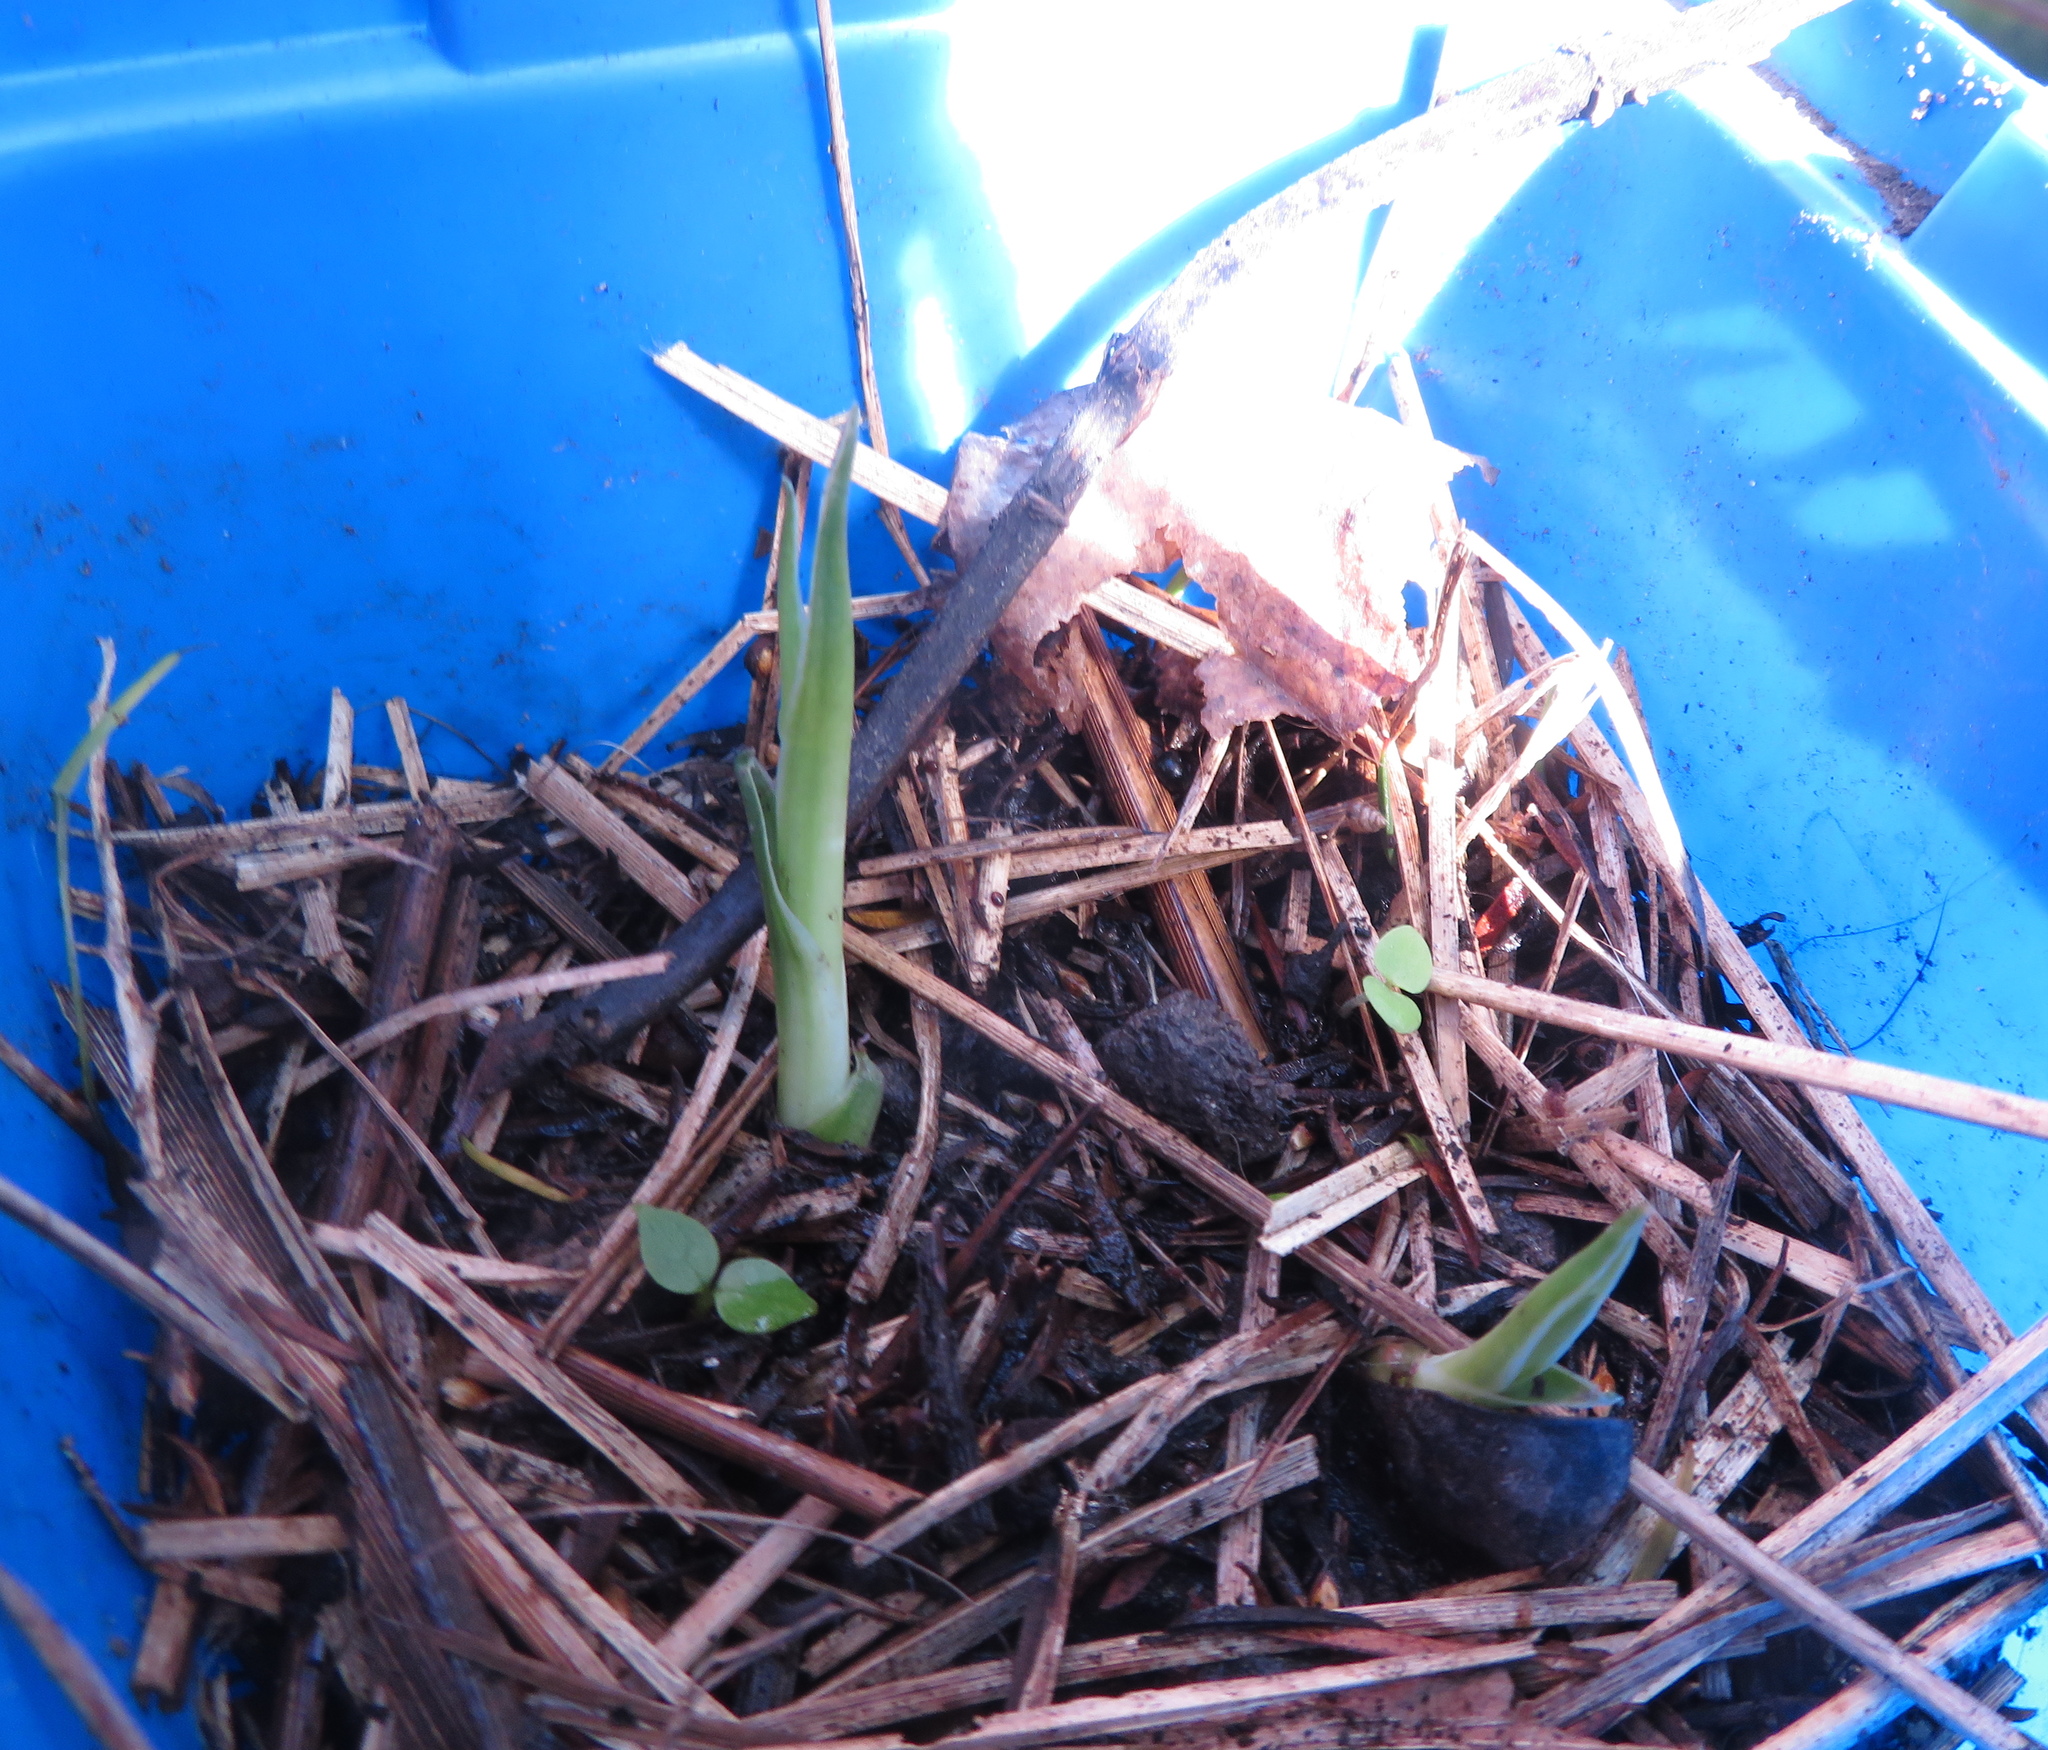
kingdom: Plantae
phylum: Tracheophyta
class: Liliopsida
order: Asparagales
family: Asparagaceae
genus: Dracaena
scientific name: Dracaena draco
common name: Canary island dragon tree
